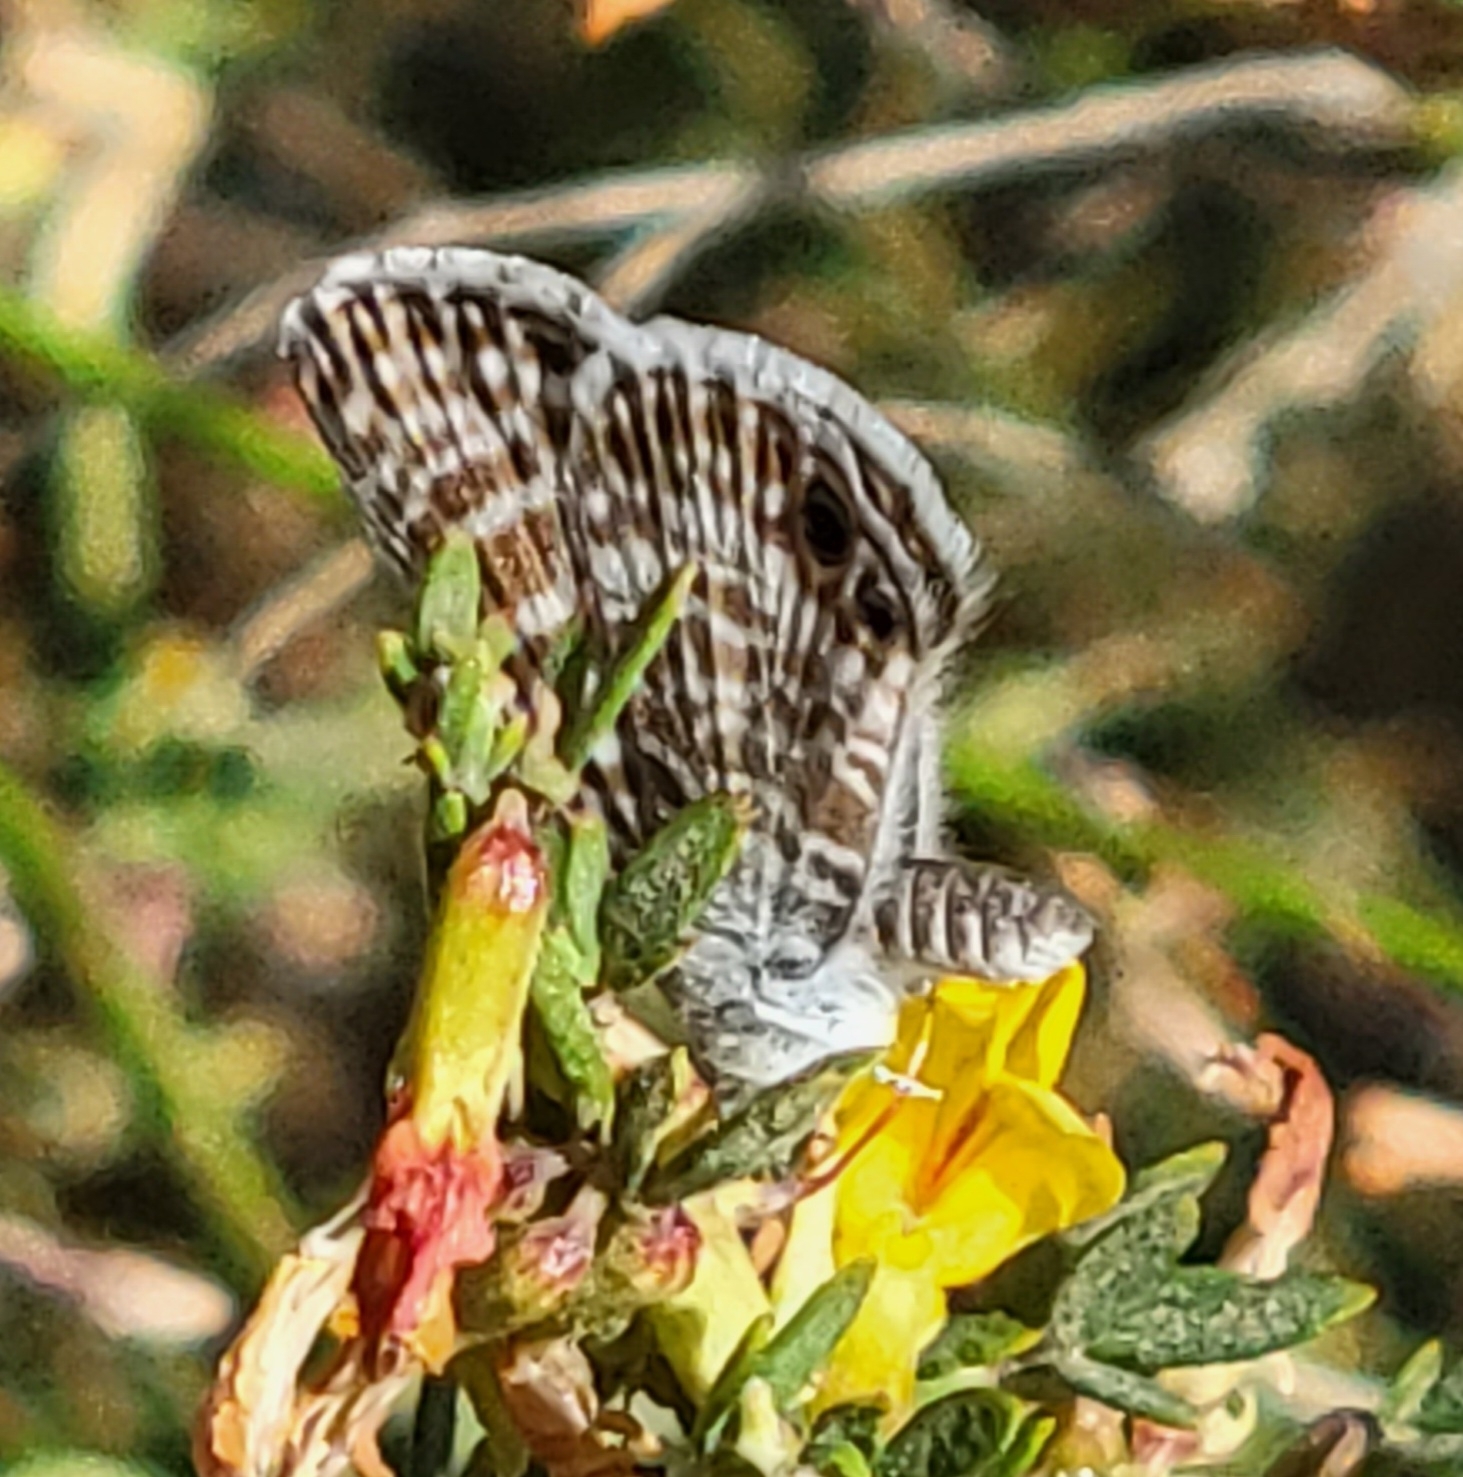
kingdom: Animalia
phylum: Arthropoda
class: Insecta
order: Lepidoptera
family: Lycaenidae
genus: Leptotes
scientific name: Leptotes marina
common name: Marine blue
